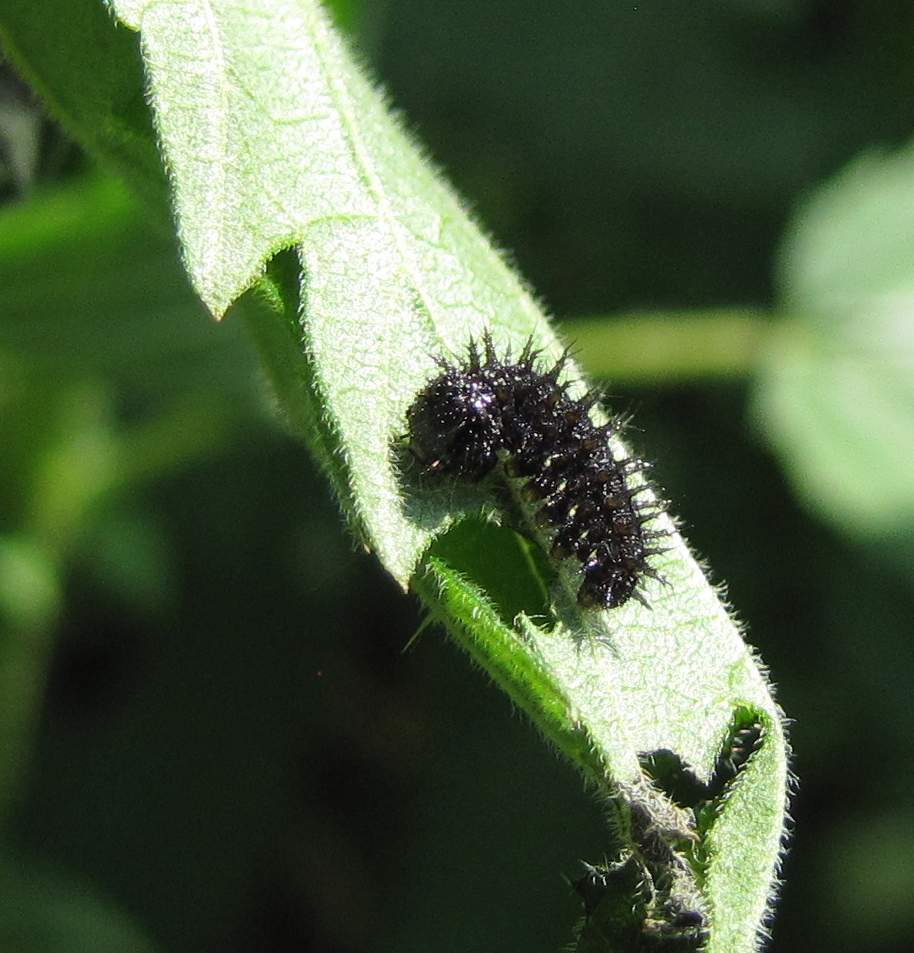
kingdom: Animalia
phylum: Arthropoda
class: Insecta
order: Lepidoptera
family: Nymphalidae
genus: Vanessa
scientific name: Vanessa atalanta
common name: Red admiral
